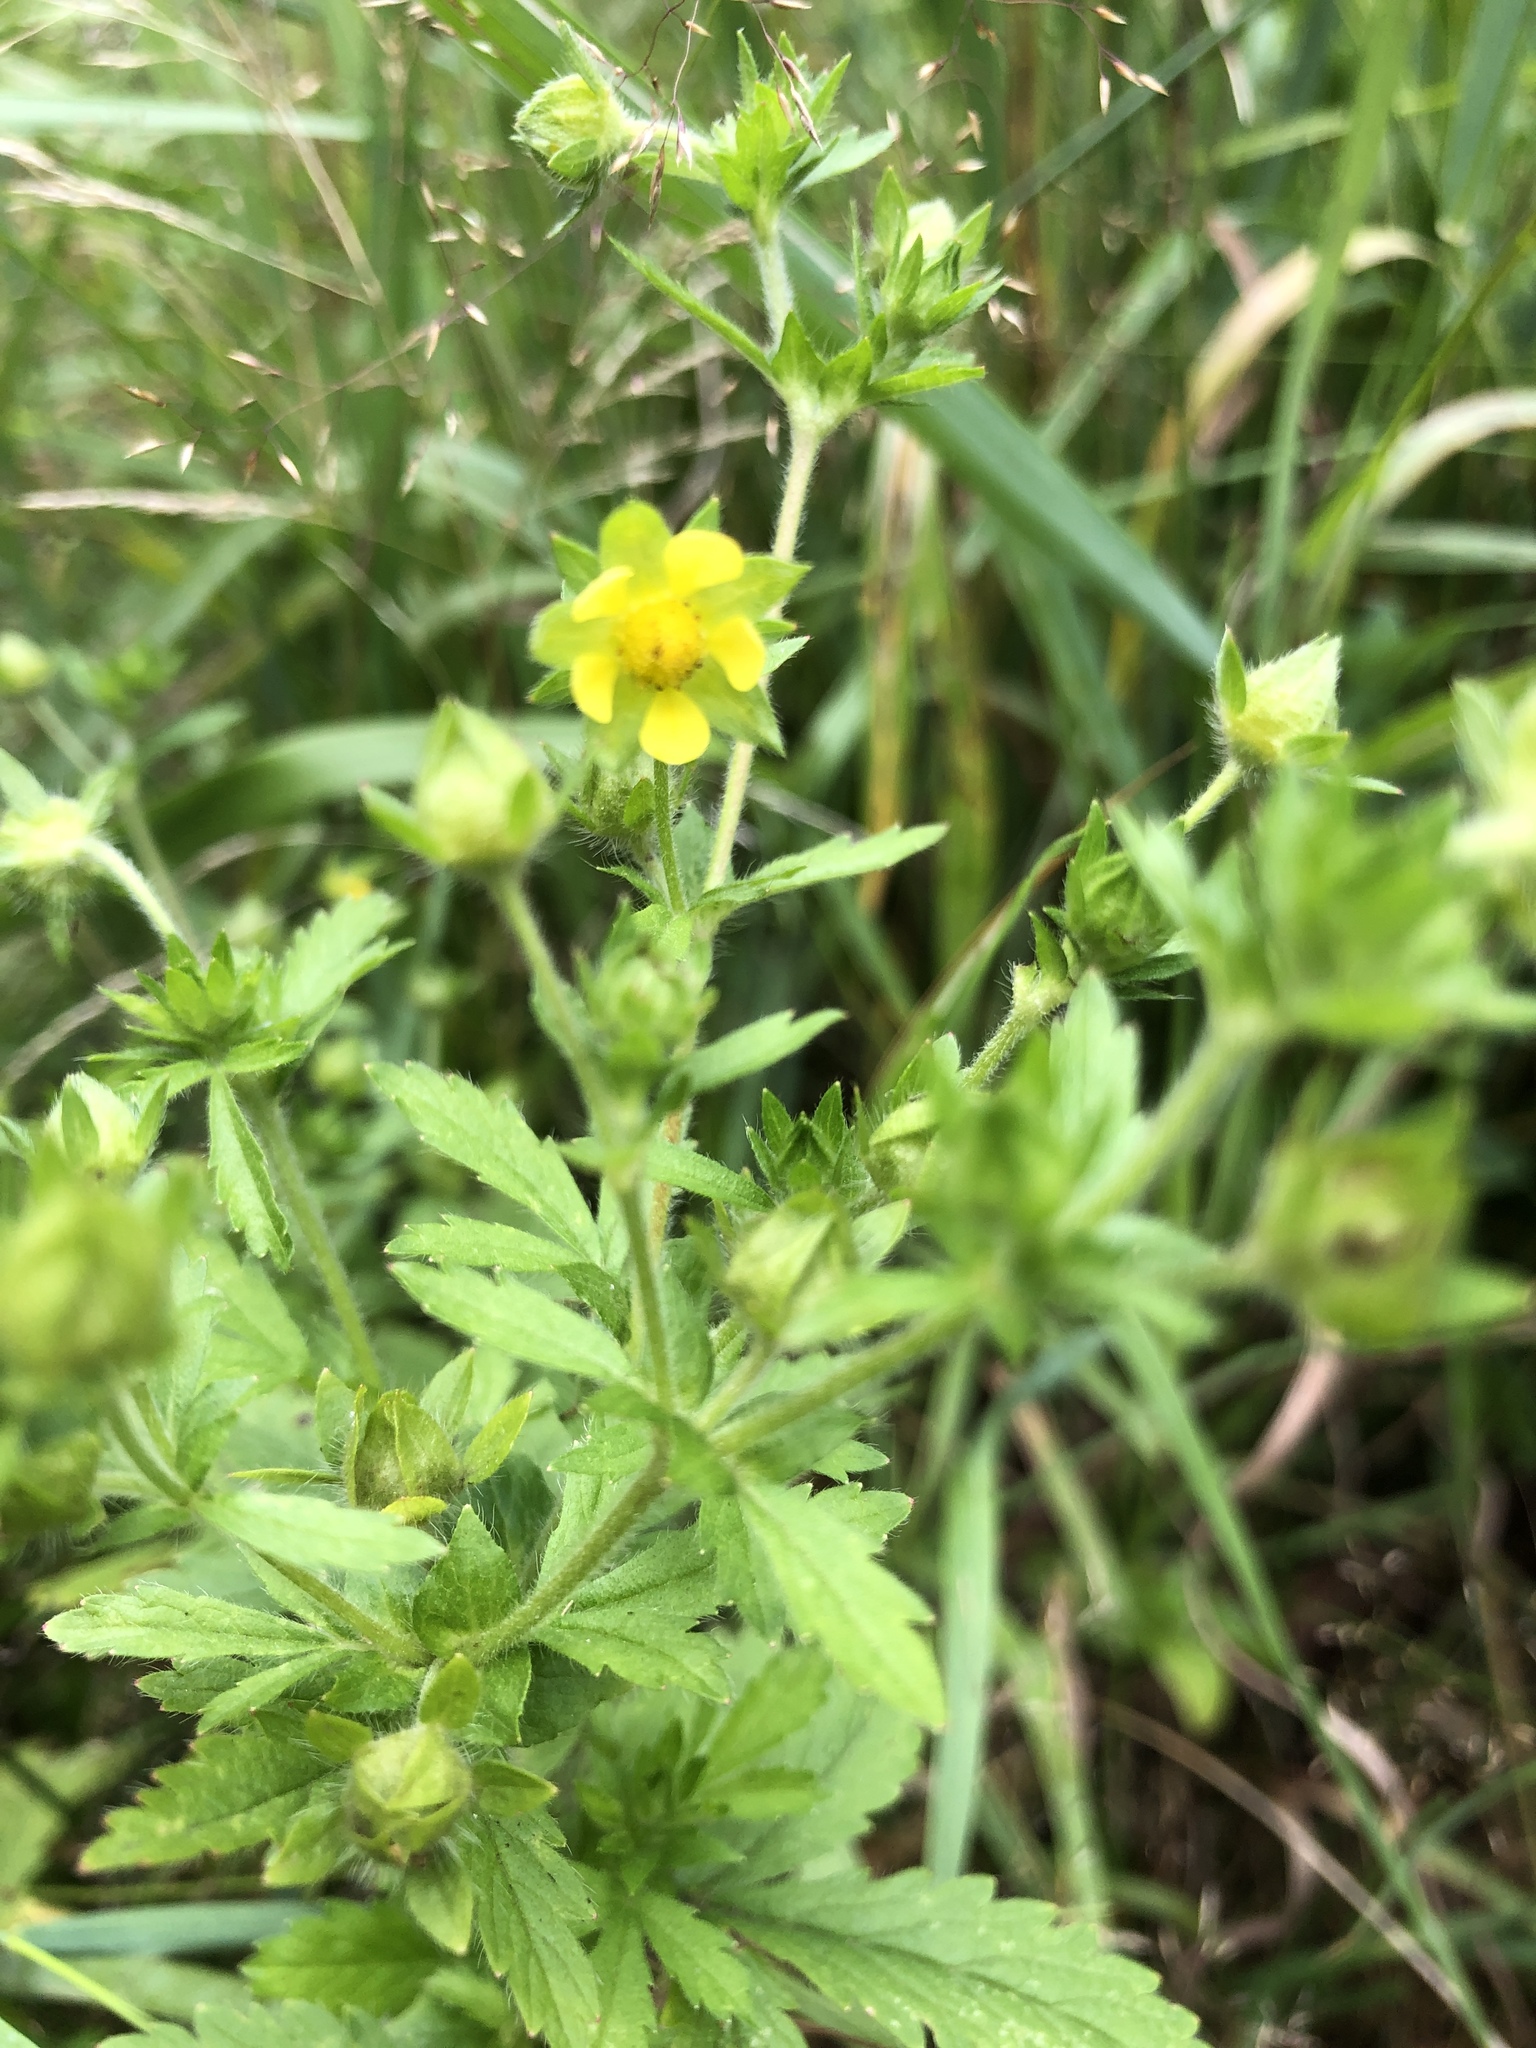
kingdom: Plantae
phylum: Tracheophyta
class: Magnoliopsida
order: Rosales
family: Rosaceae
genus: Potentilla
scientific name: Potentilla norvegica
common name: Ternate-leaved cinquefoil
